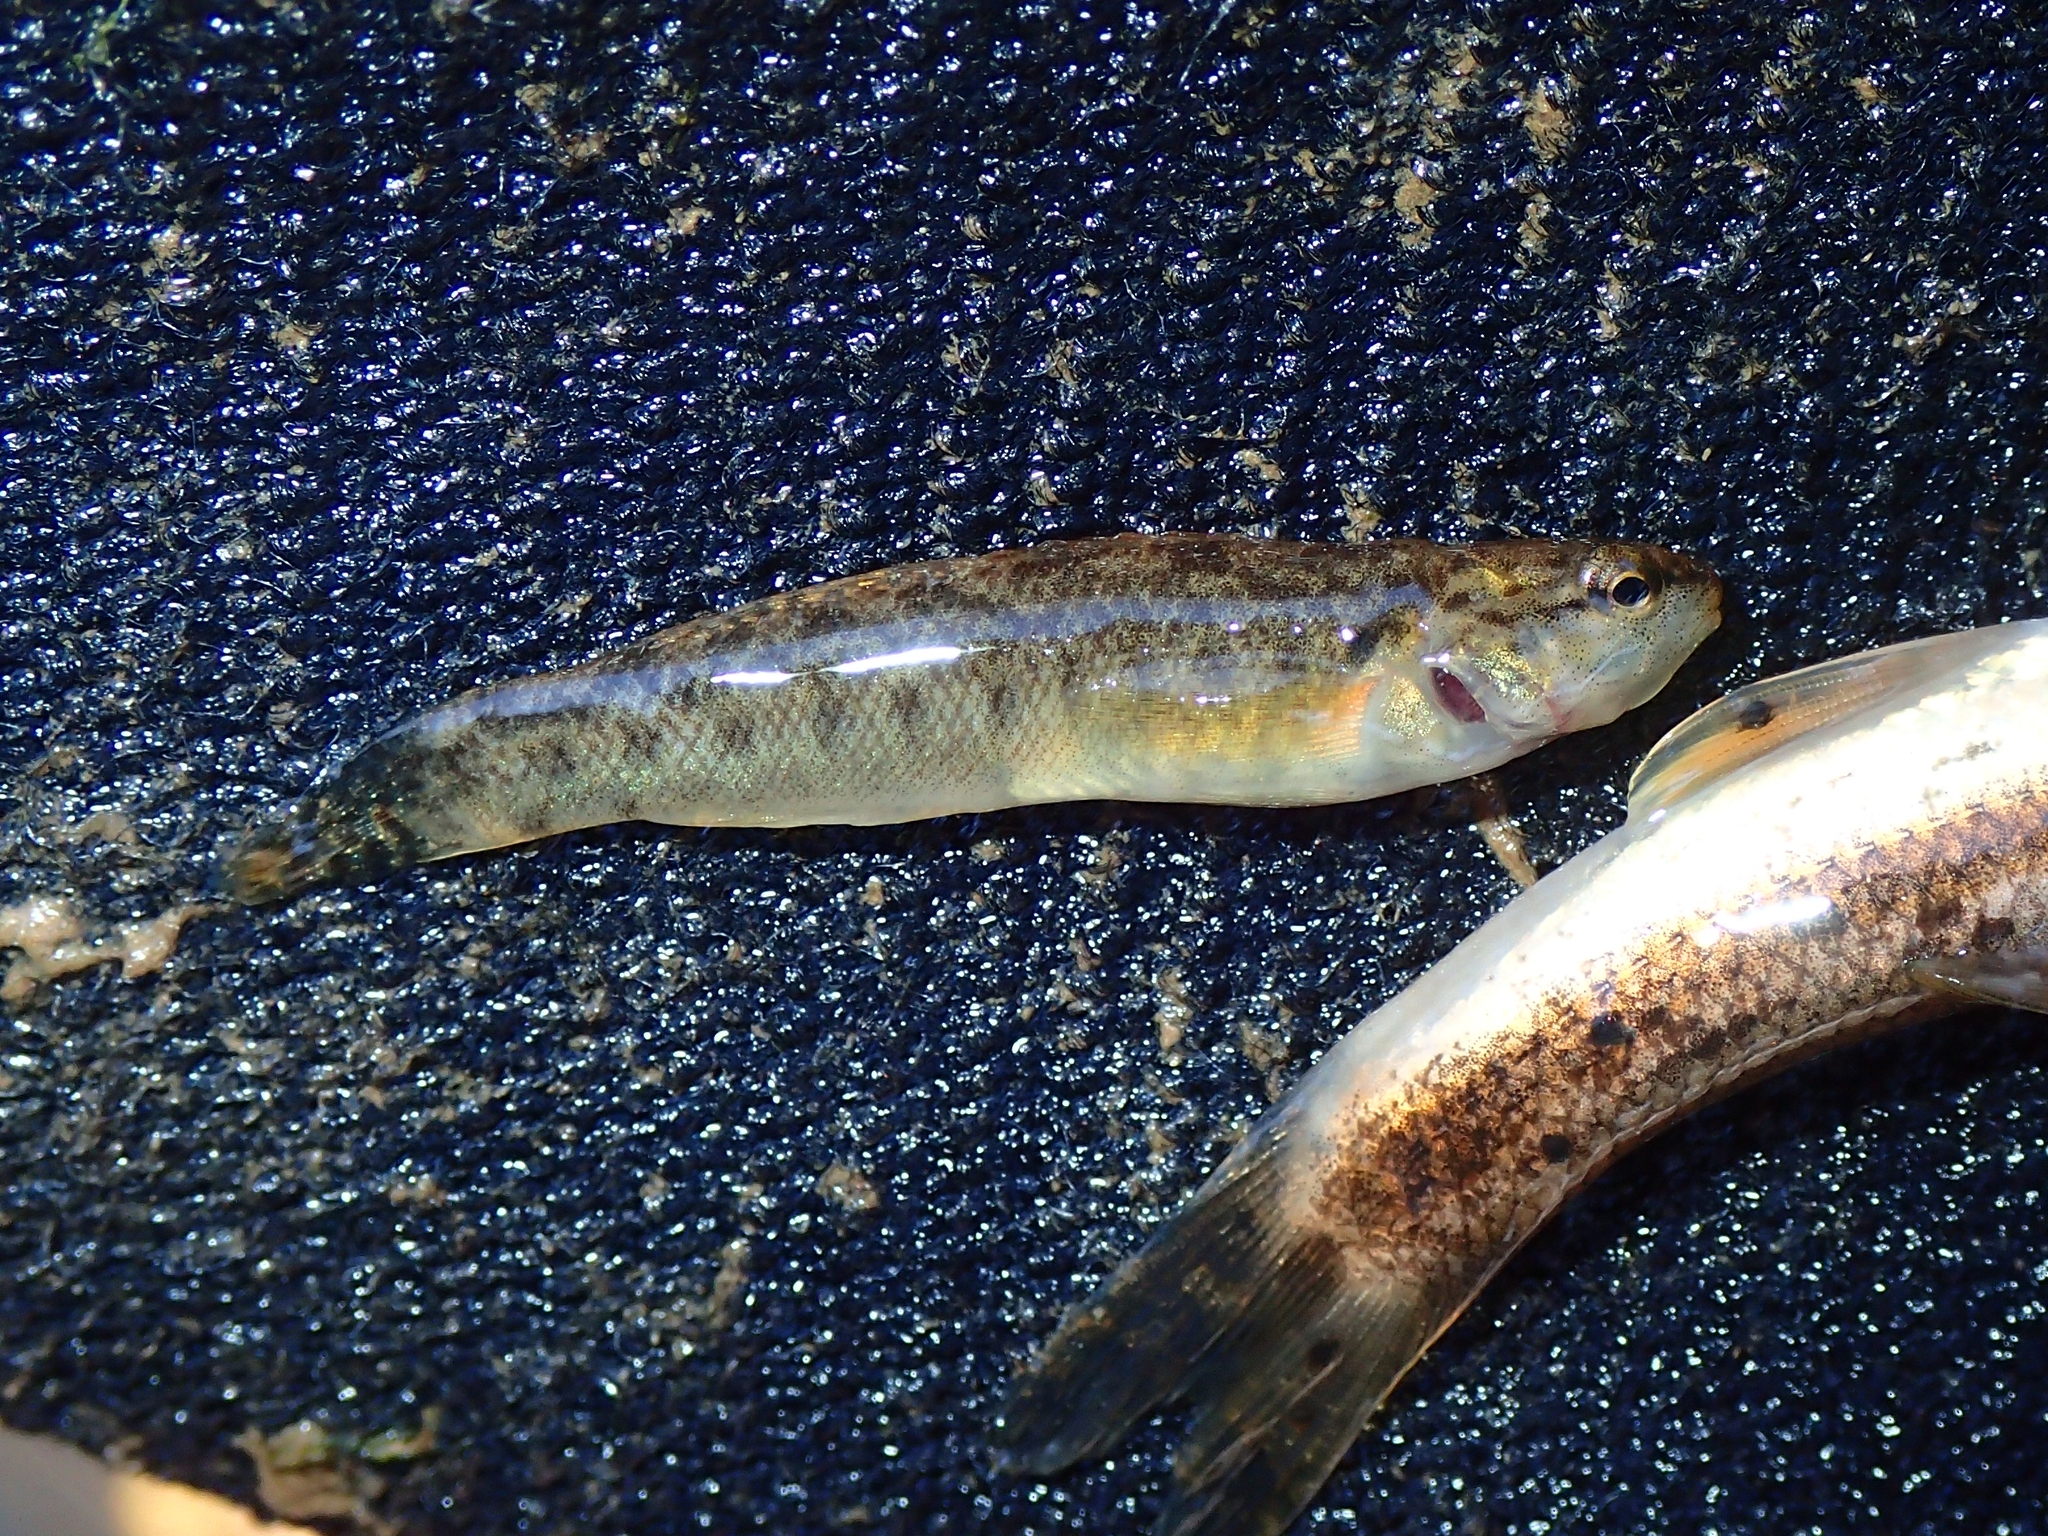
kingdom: Animalia
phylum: Chordata
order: Perciformes
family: Percidae
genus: Etheostoma
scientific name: Etheostoma flabellare
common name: Fantail darter
